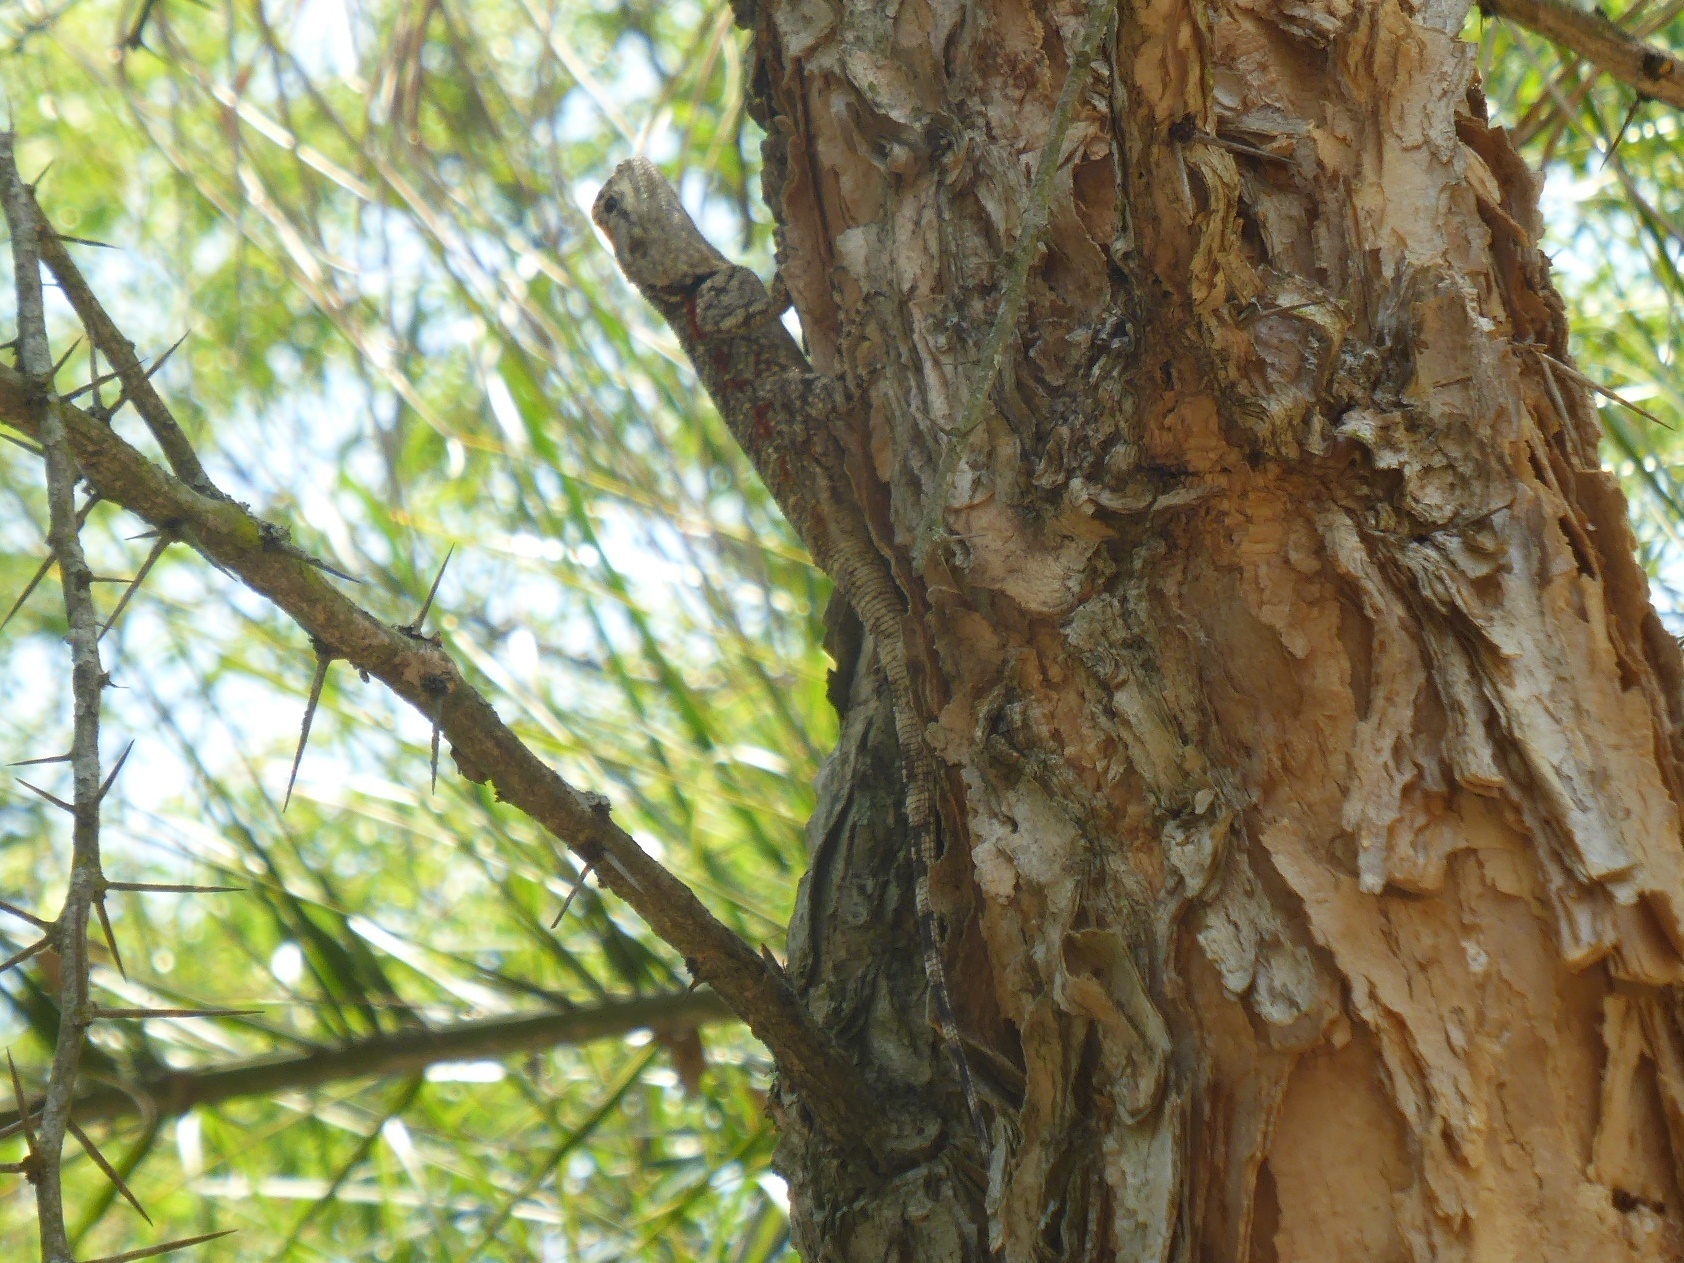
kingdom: Animalia
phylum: Chordata
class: Squamata
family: Agamidae
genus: Acanthocercus
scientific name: Acanthocercus atricollis
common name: Southern tree agama
